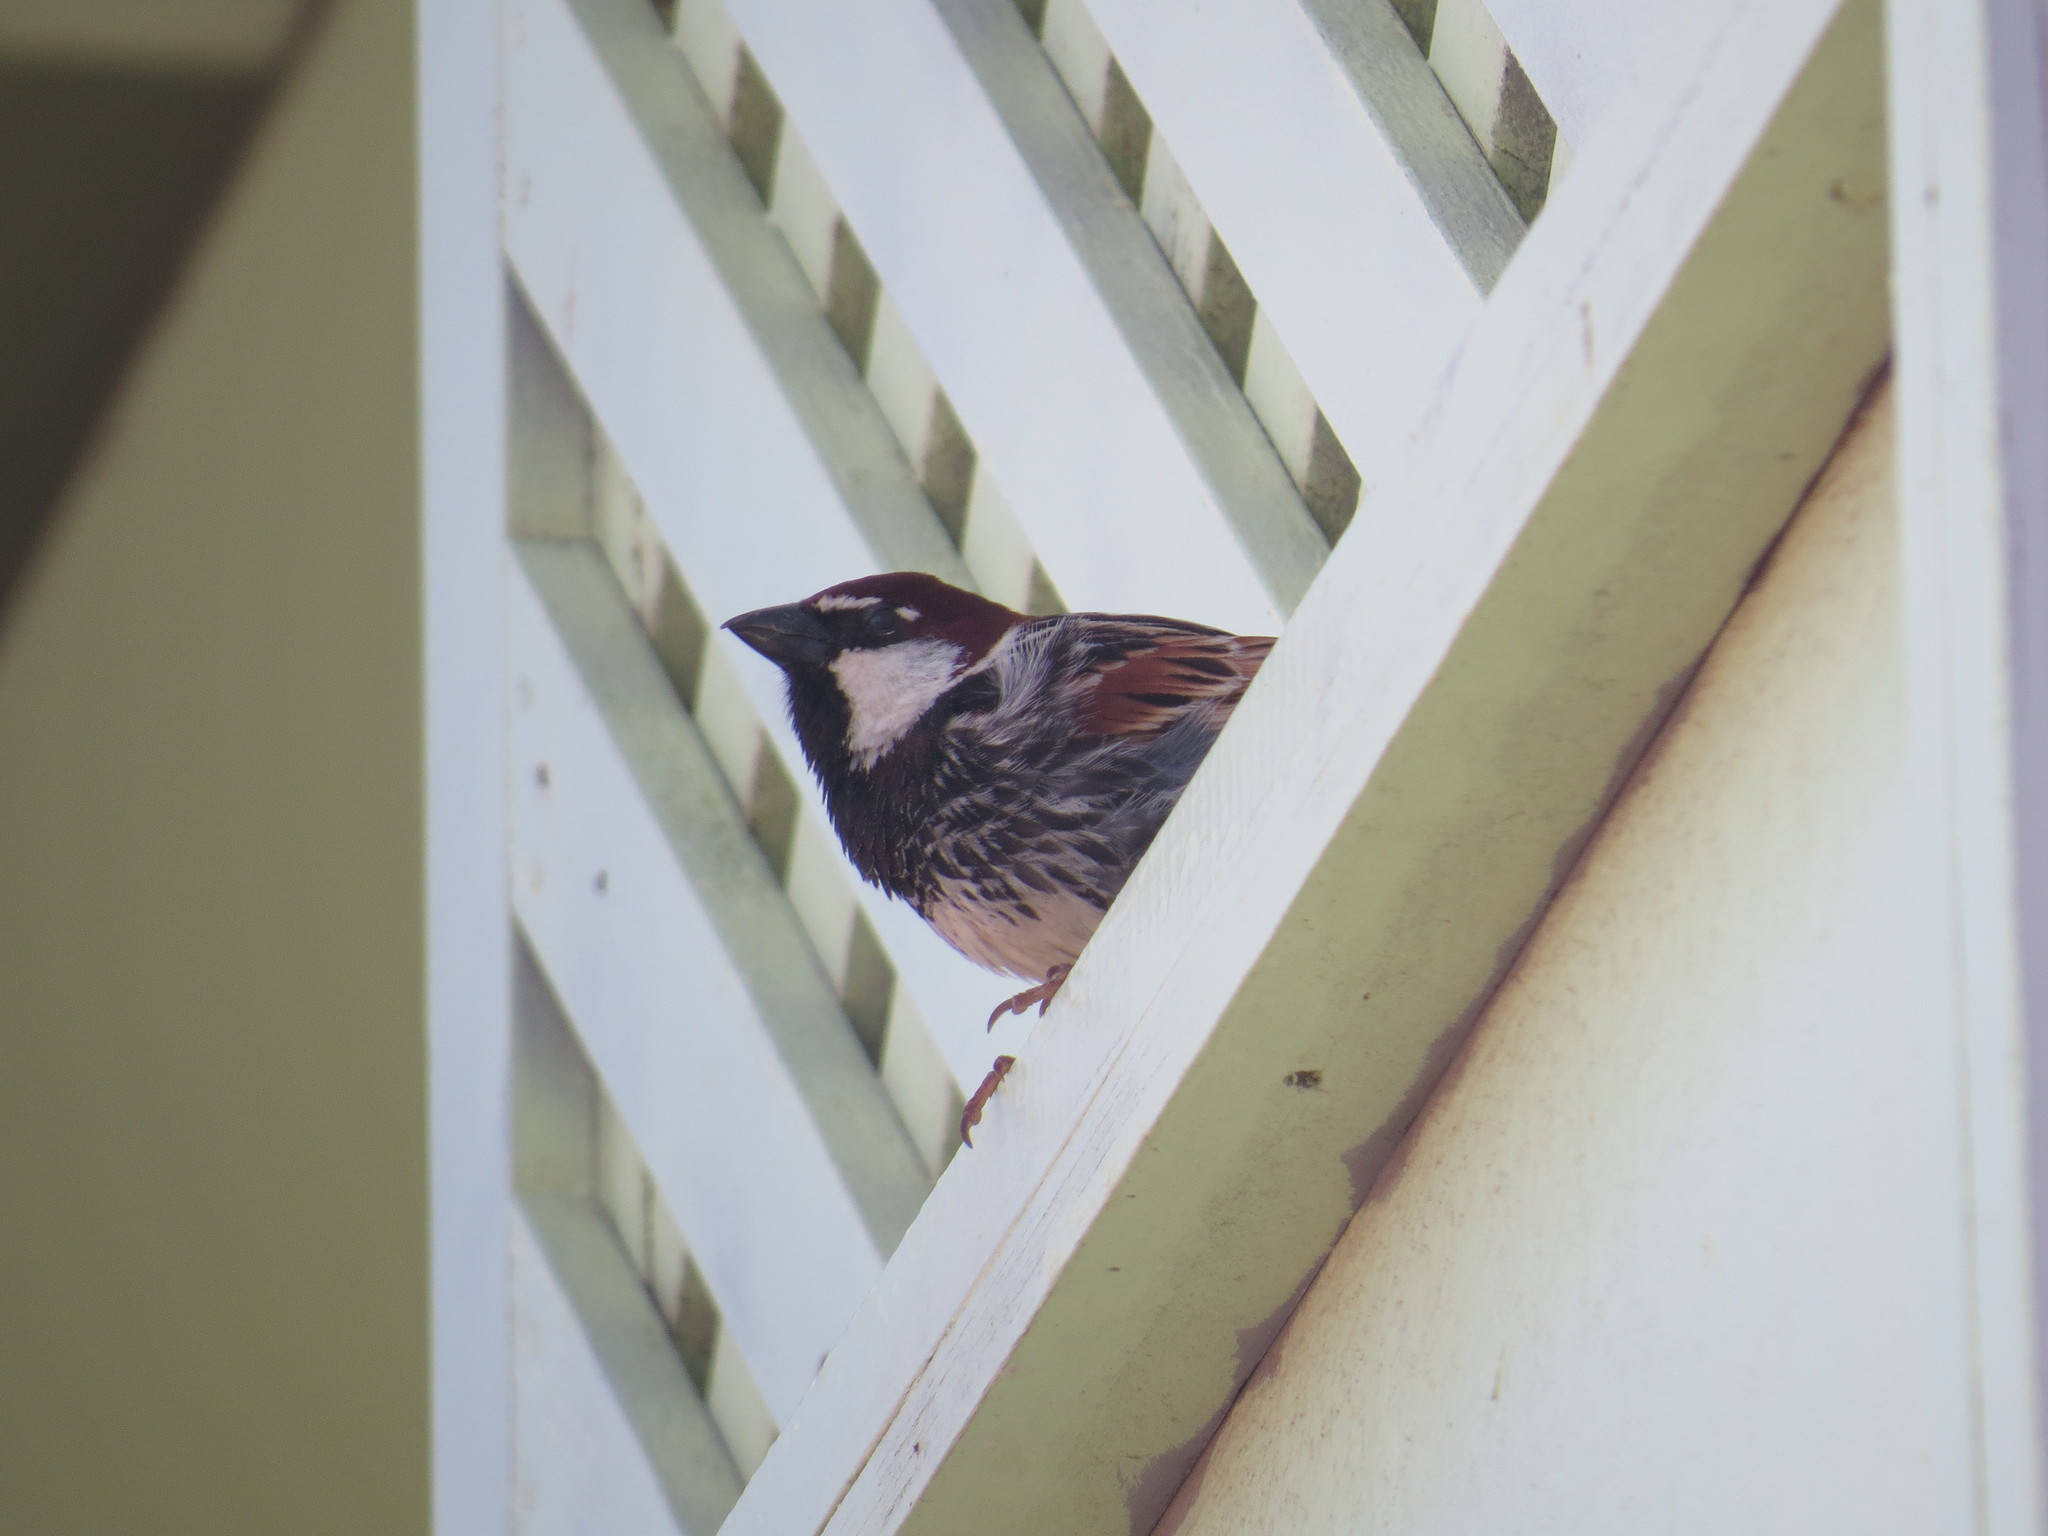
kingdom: Animalia
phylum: Chordata
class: Aves
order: Passeriformes
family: Passeridae
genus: Passer
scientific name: Passer hispaniolensis
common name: Spanish sparrow
